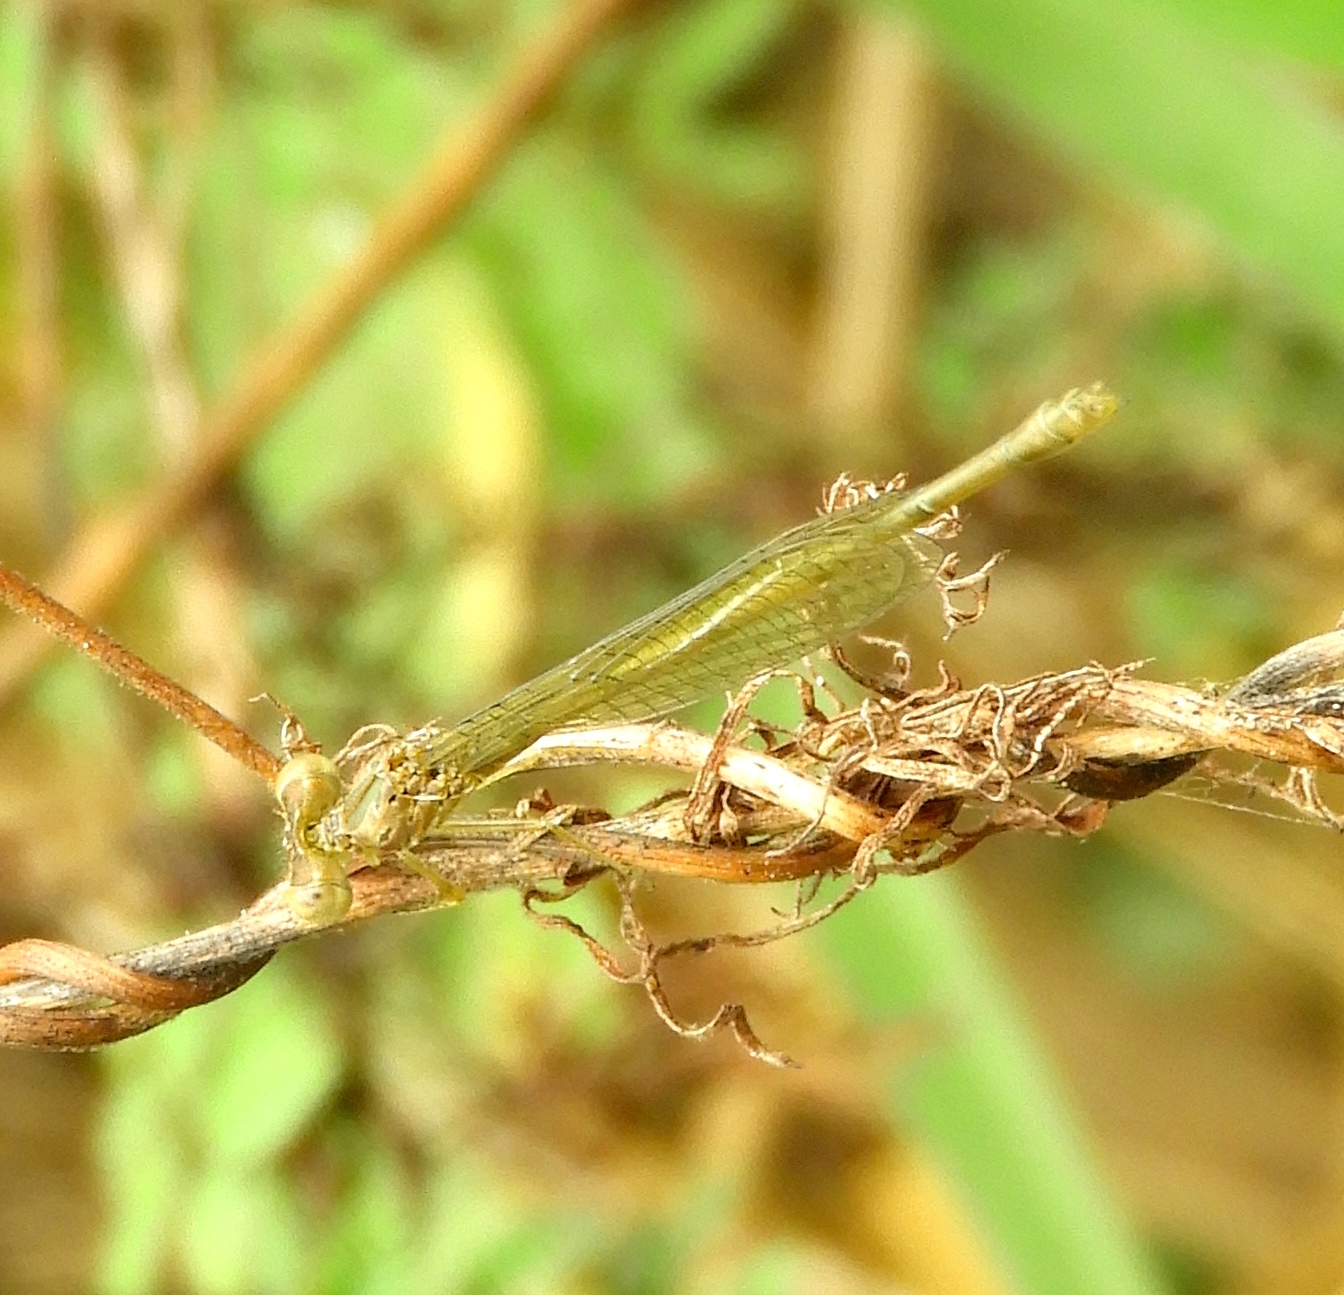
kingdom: Animalia
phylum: Arthropoda
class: Insecta
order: Odonata
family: Coenagrionidae
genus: Telebasis
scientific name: Telebasis salva
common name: Desert firetail
